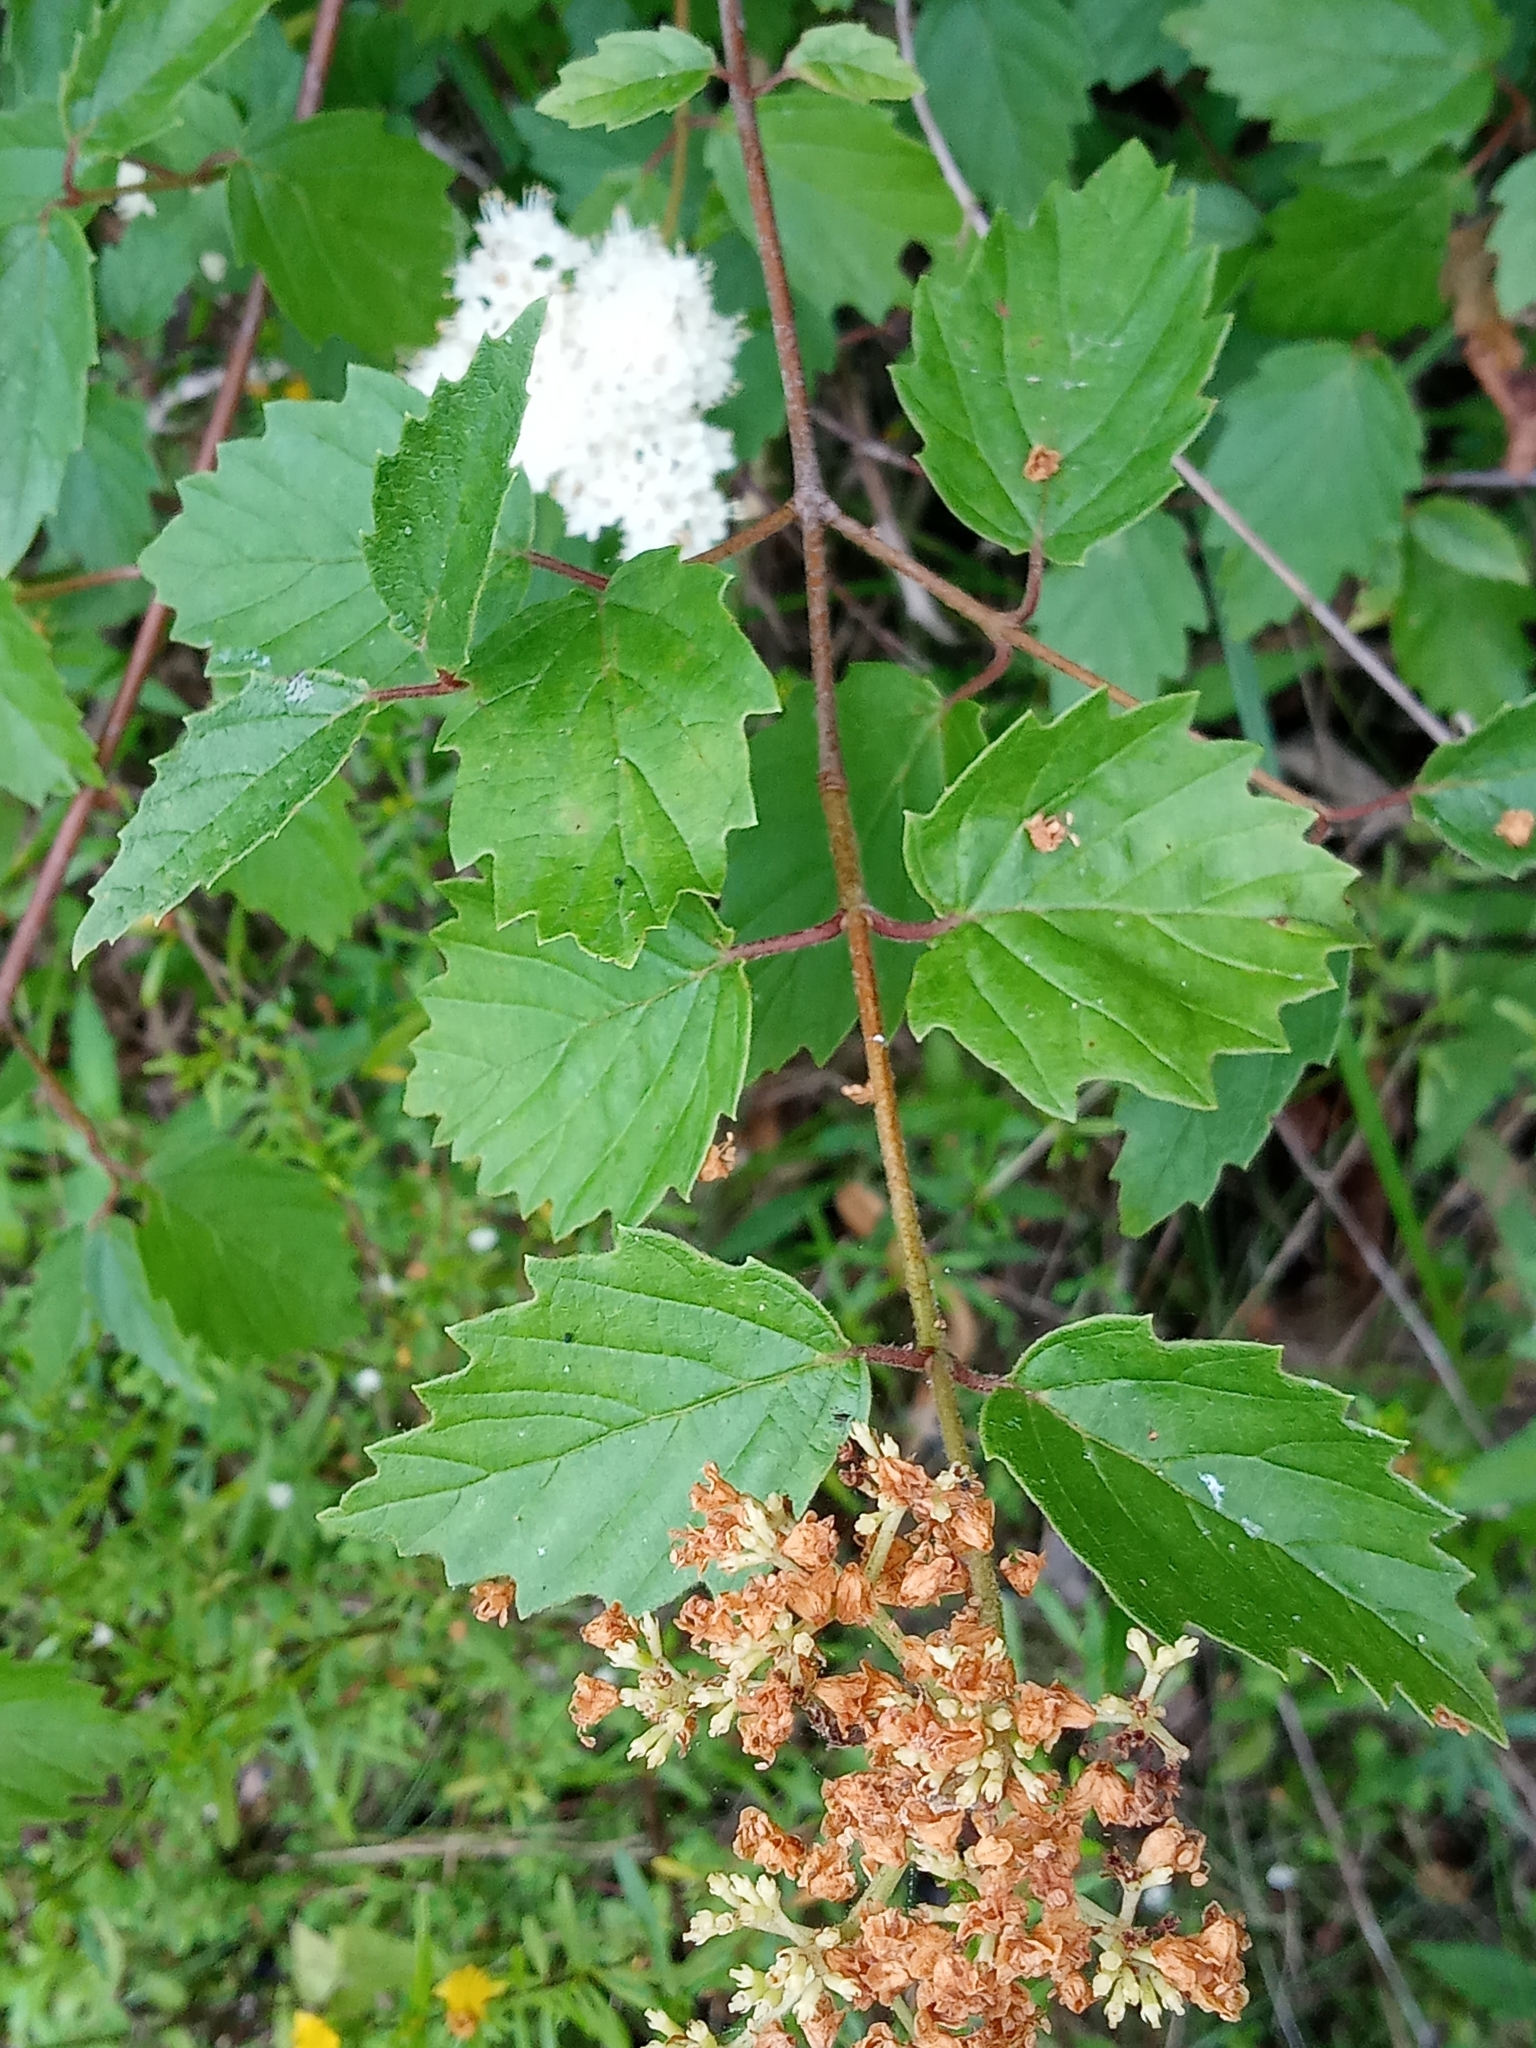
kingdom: Plantae
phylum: Tracheophyta
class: Magnoliopsida
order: Dipsacales
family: Viburnaceae
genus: Viburnum
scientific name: Viburnum scabrellum
